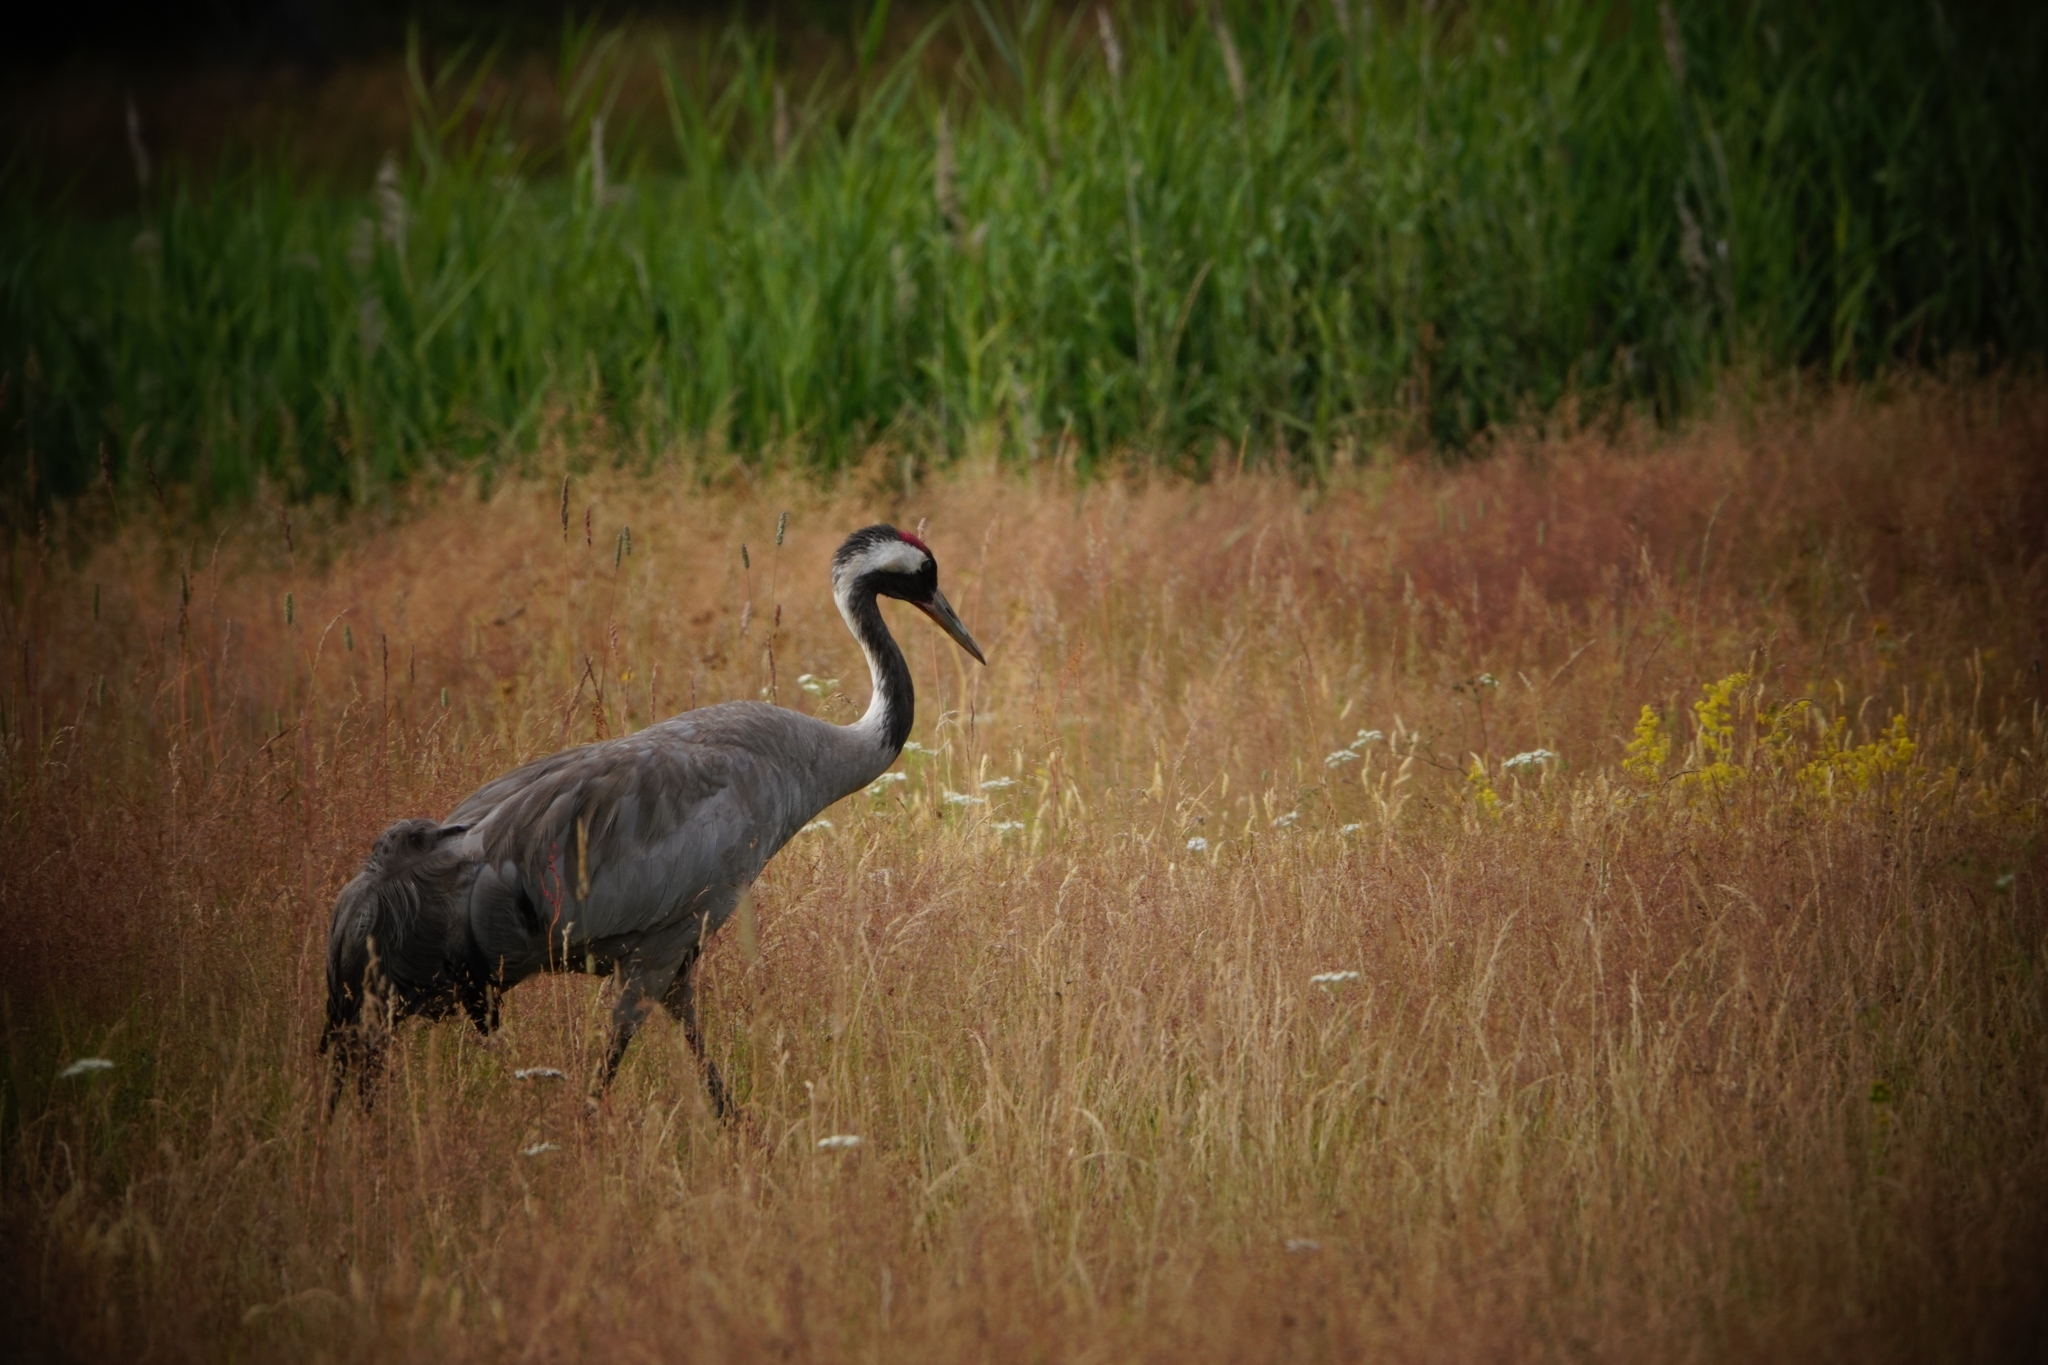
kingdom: Animalia
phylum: Chordata
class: Aves
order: Gruiformes
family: Gruidae
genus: Grus
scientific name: Grus grus
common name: Common crane
